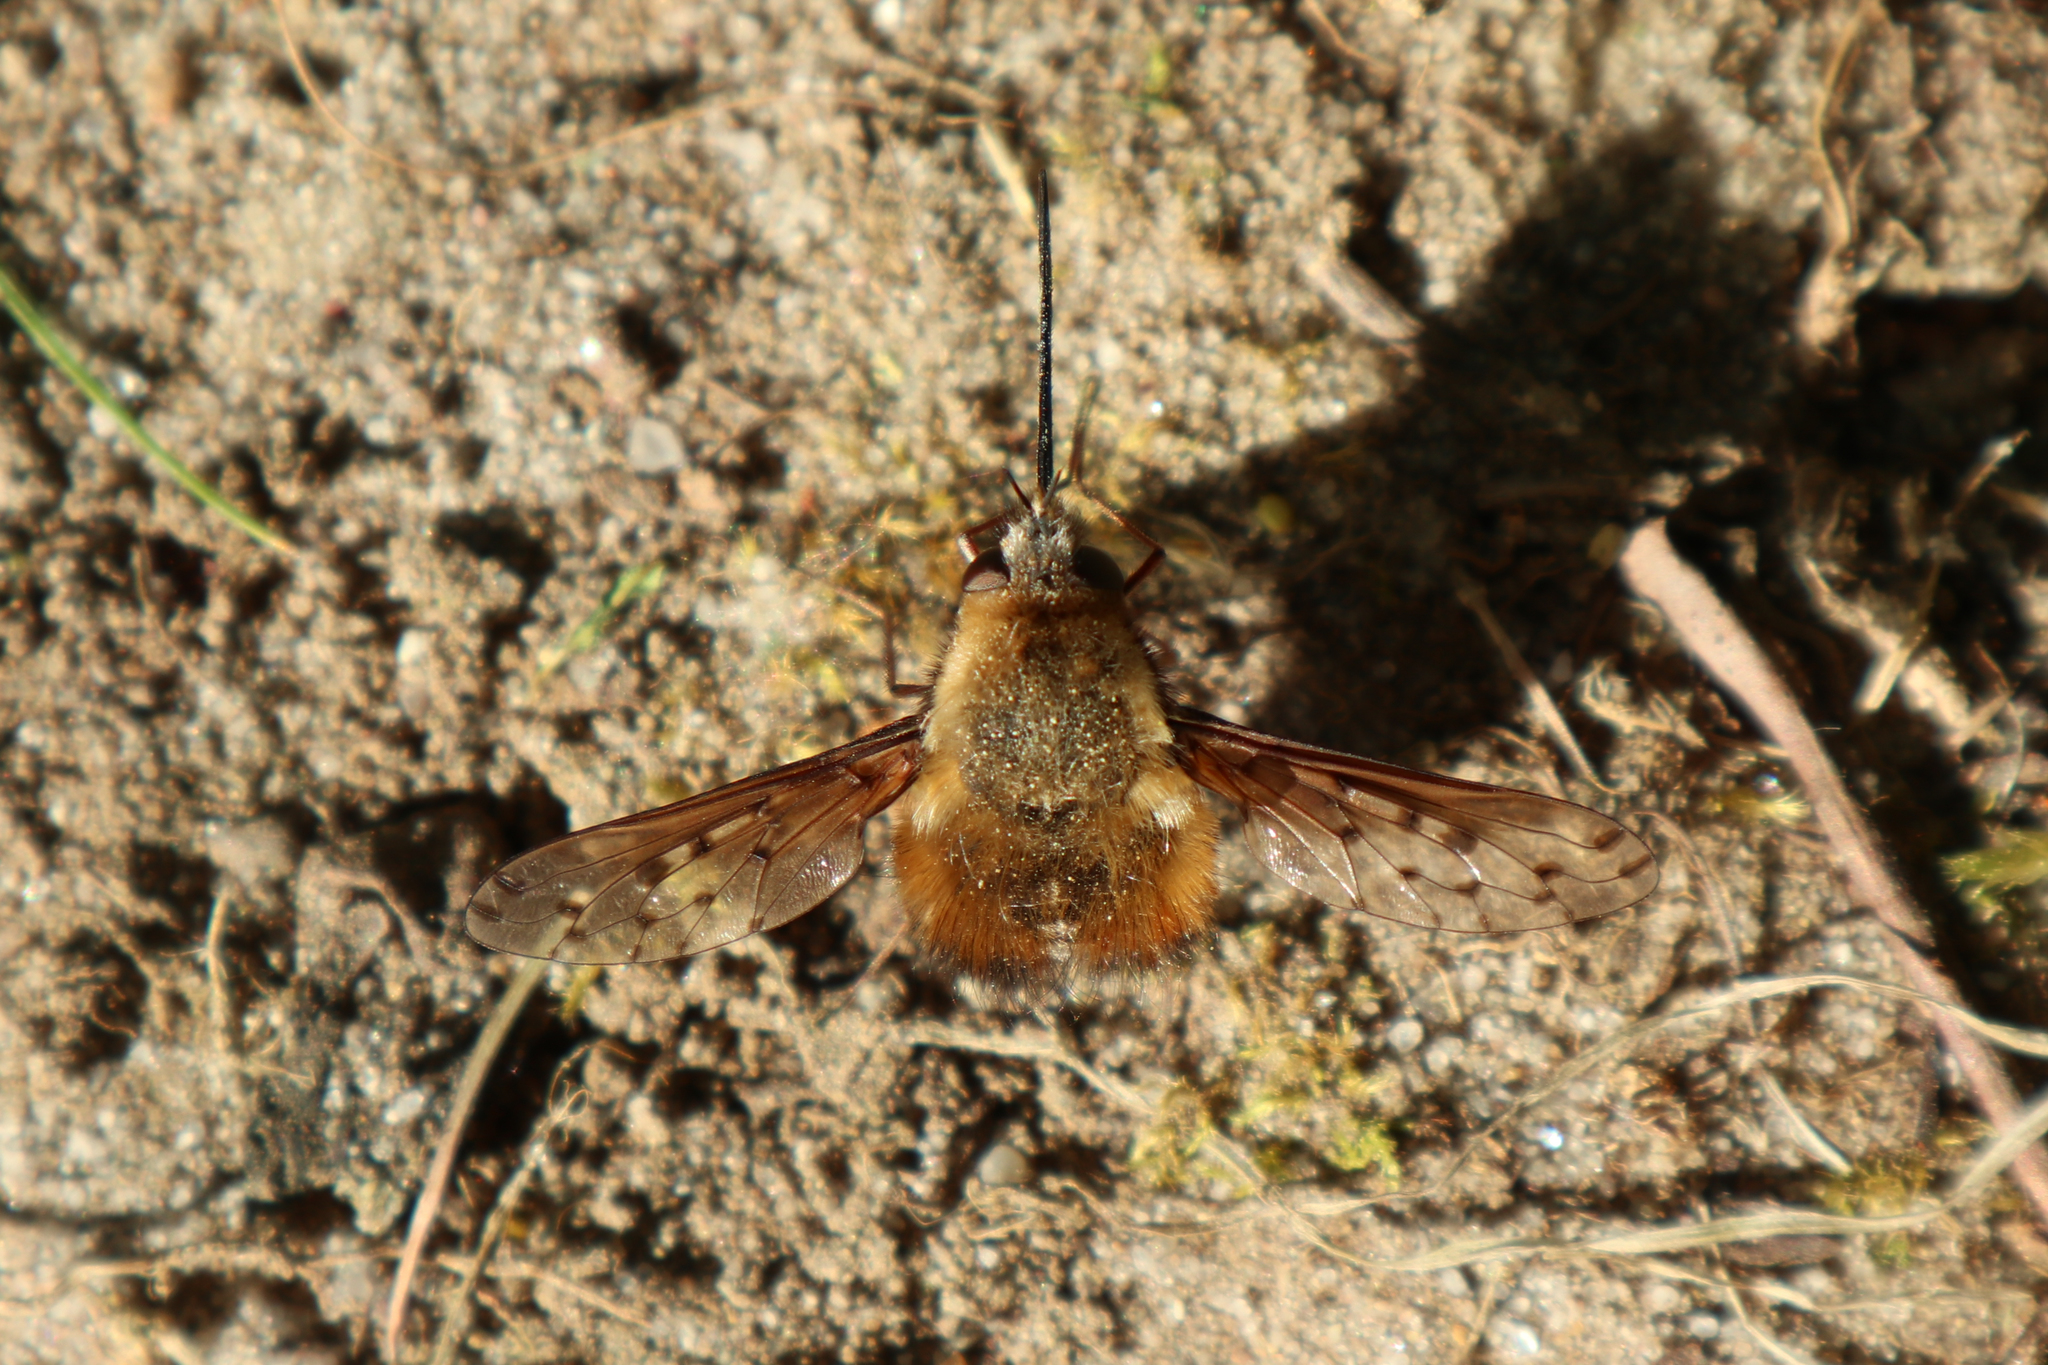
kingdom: Animalia
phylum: Arthropoda
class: Insecta
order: Diptera
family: Bombyliidae
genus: Bombylius
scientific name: Bombylius discolor
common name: Dotted bee-fly
